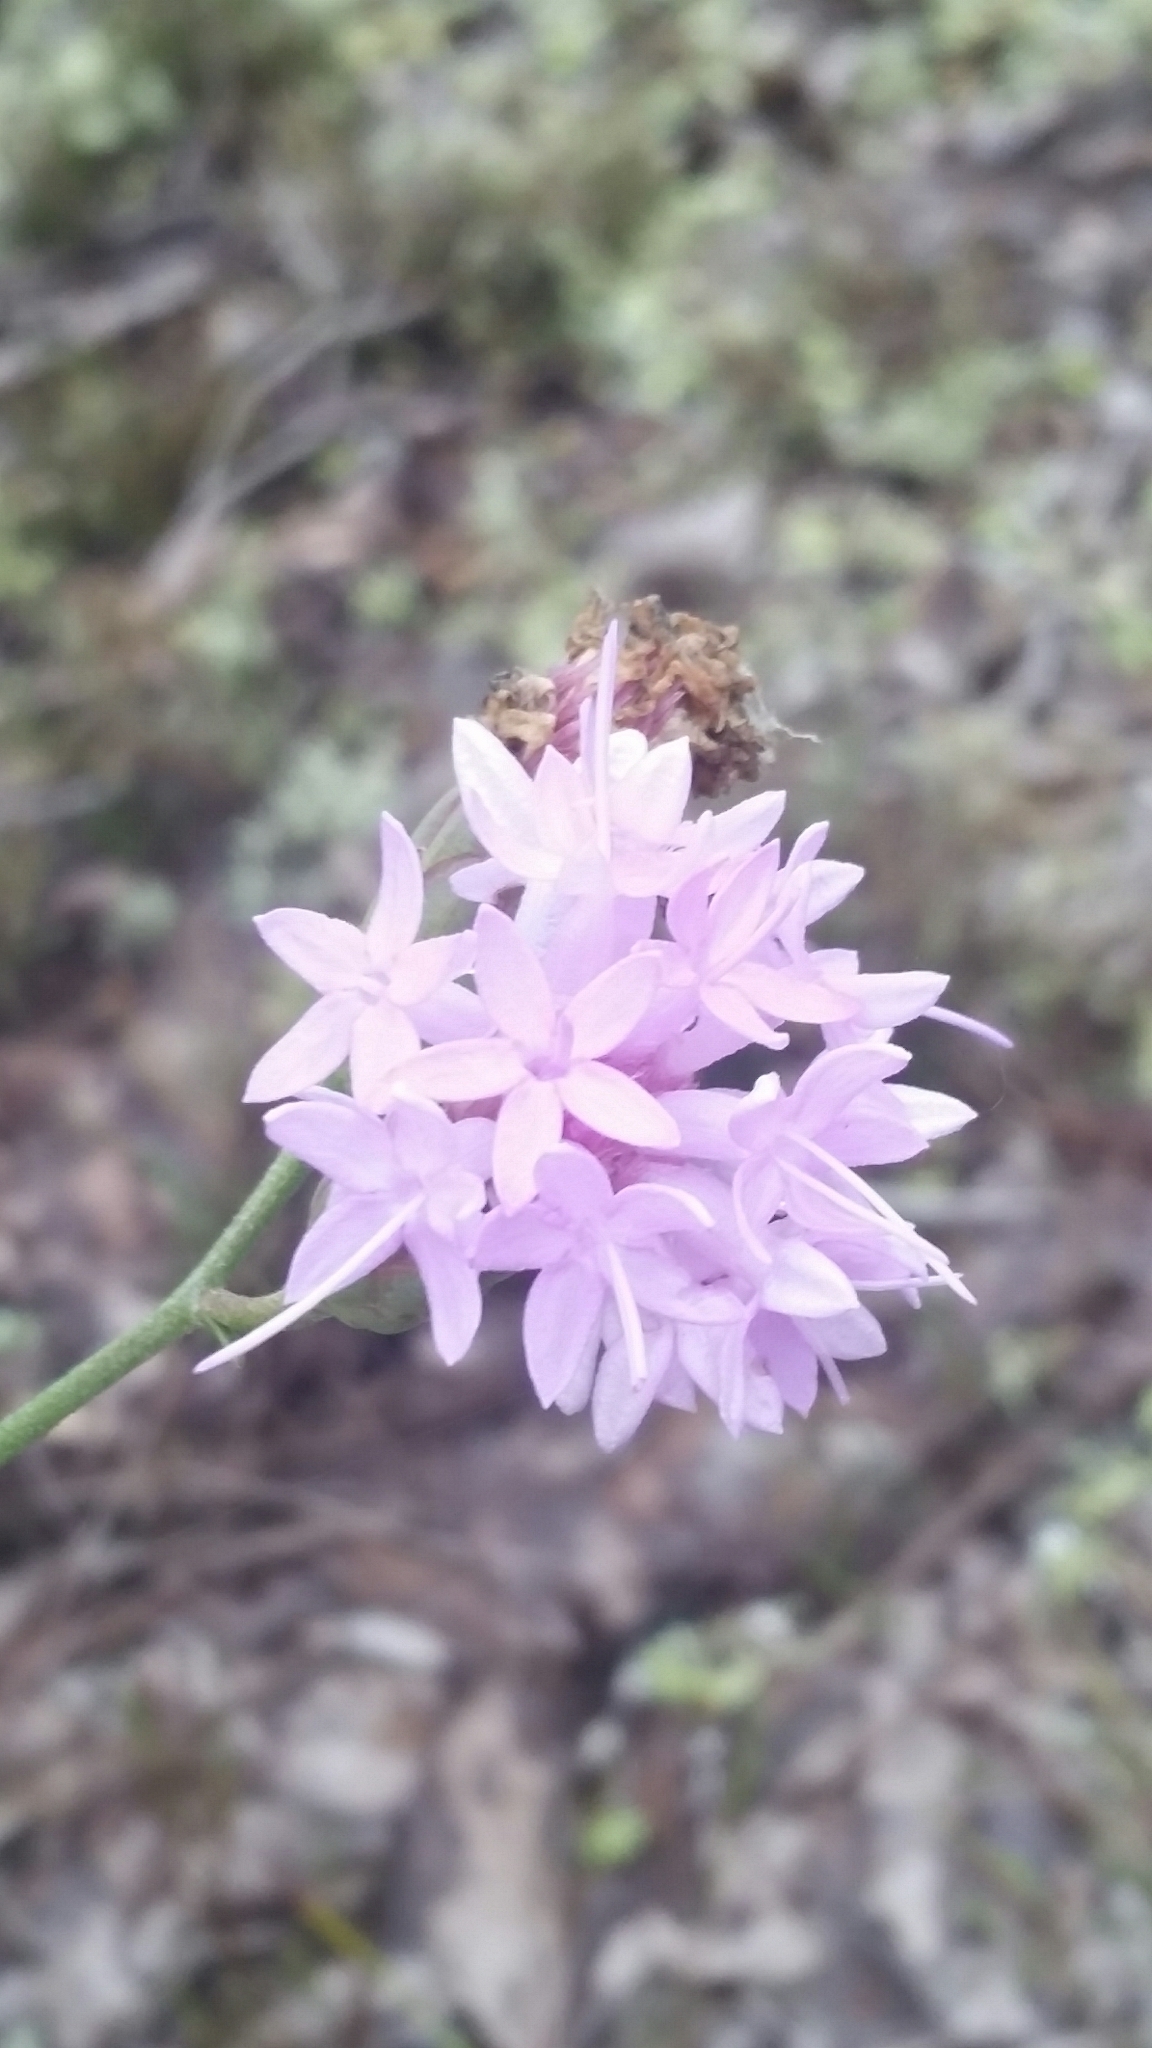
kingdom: Plantae
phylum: Tracheophyta
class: Magnoliopsida
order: Asterales
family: Asteraceae
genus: Liatris
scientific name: Liatris ohlingerae
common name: Scrub blazingstar
